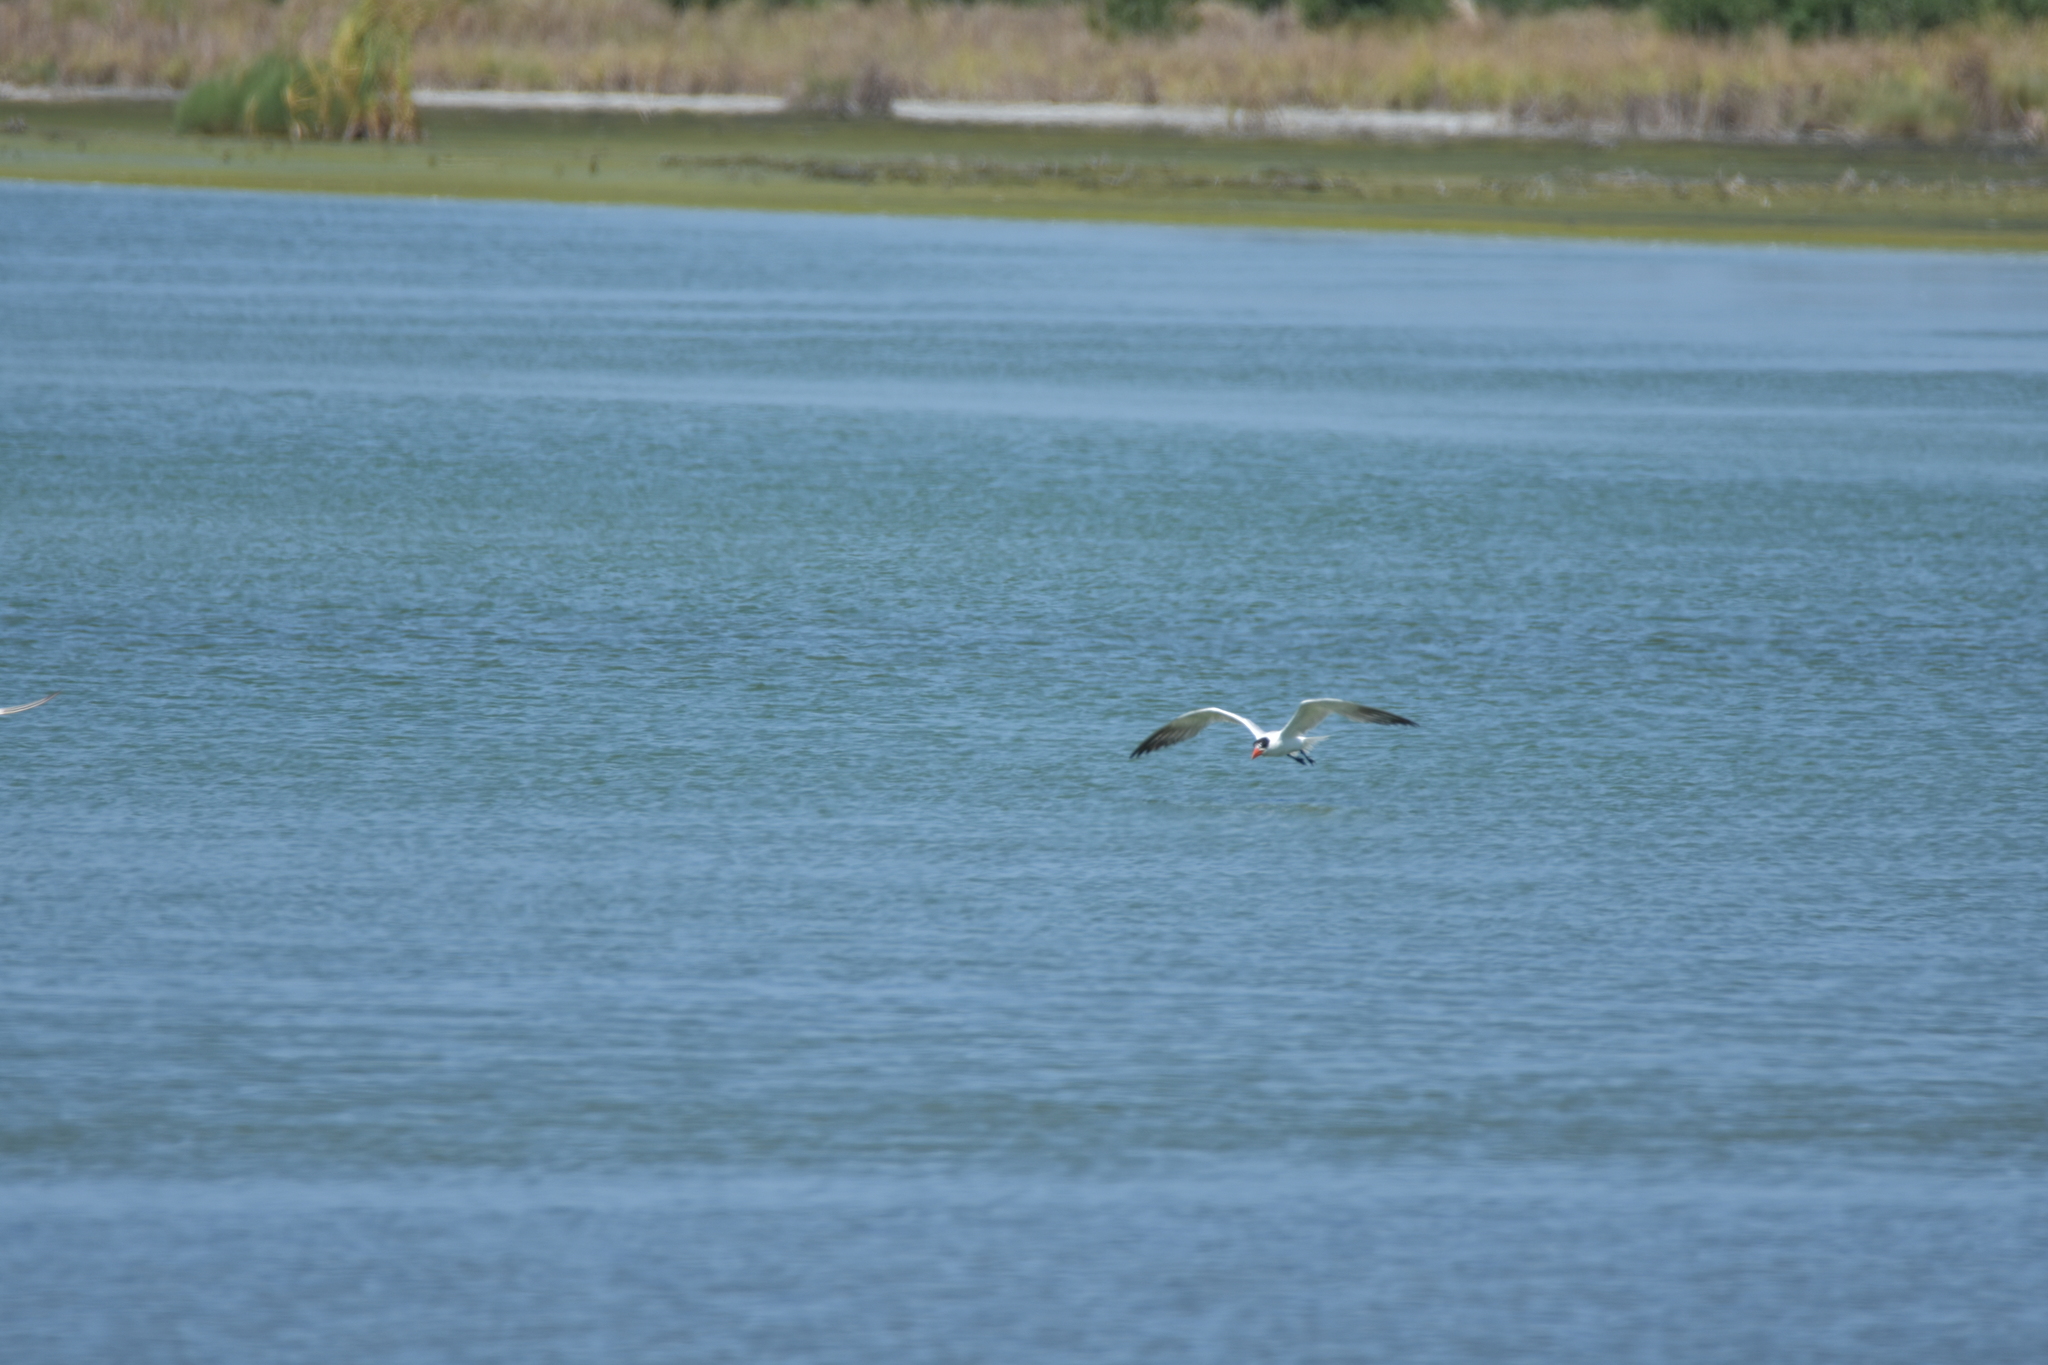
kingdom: Animalia
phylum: Chordata
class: Aves
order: Charadriiformes
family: Laridae
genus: Hydroprogne
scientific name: Hydroprogne caspia
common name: Caspian tern
